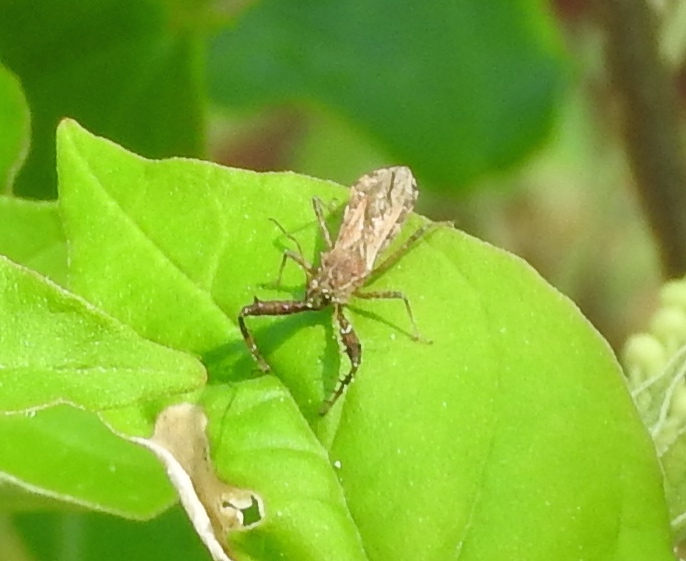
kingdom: Animalia
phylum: Arthropoda
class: Insecta
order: Hemiptera
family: Reduviidae
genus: Sinea
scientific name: Sinea
